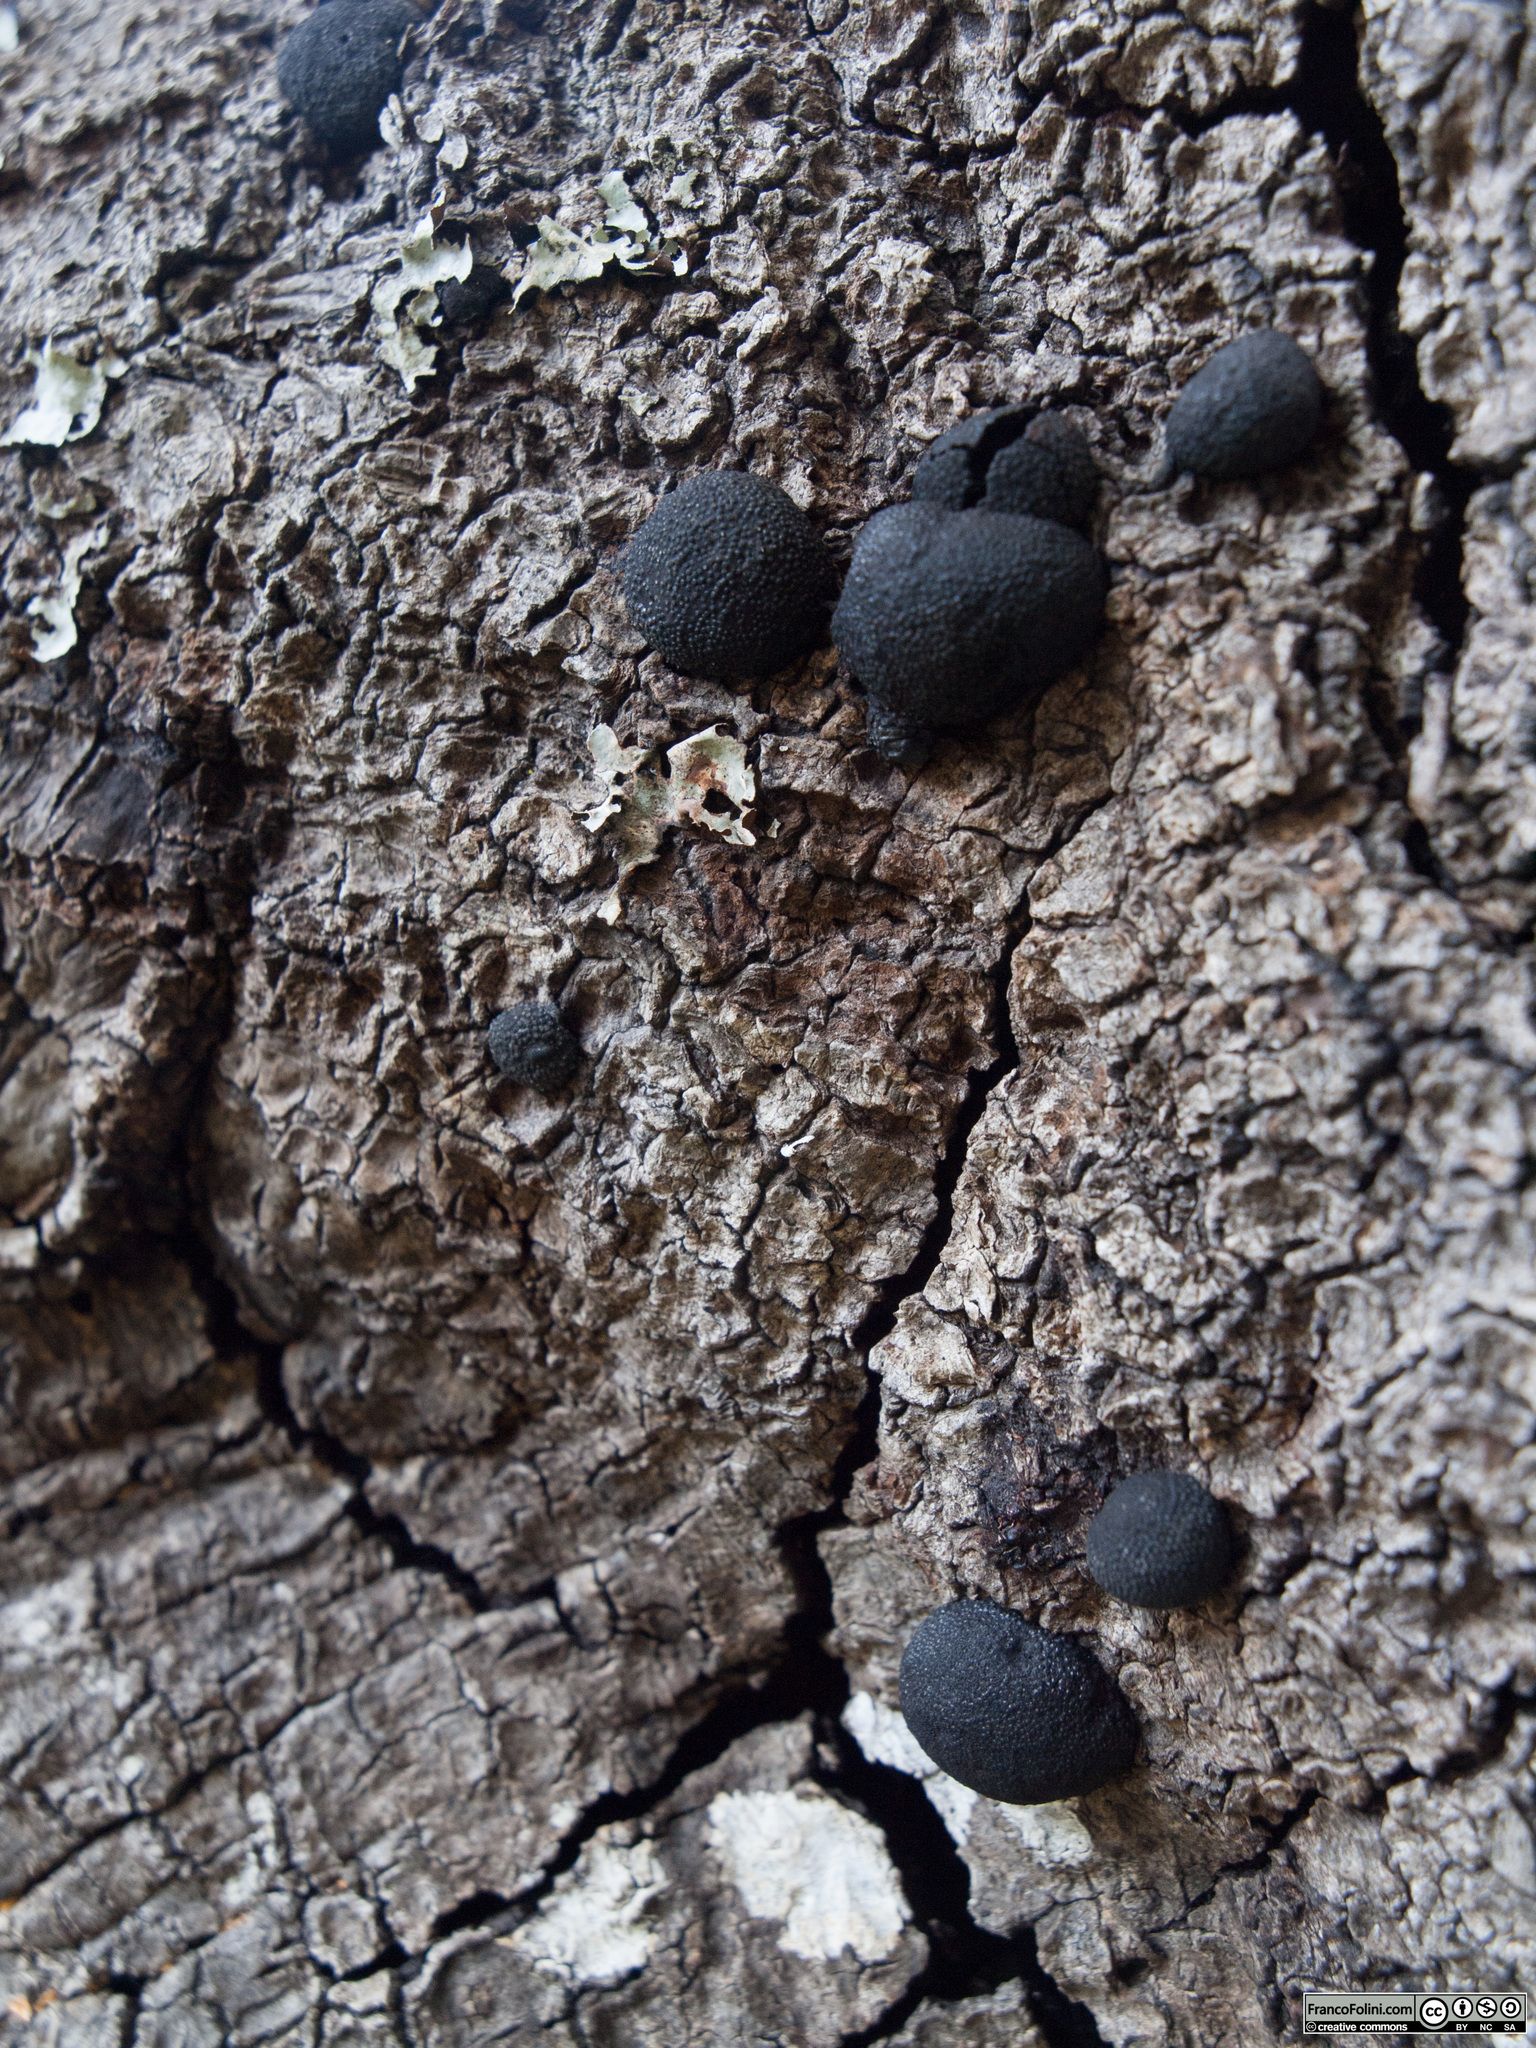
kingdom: Fungi
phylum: Ascomycota
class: Sordariomycetes
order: Xylariales
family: Hypoxylaceae
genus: Annulohypoxylon
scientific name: Annulohypoxylon thouarsianum
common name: Cramp balls
